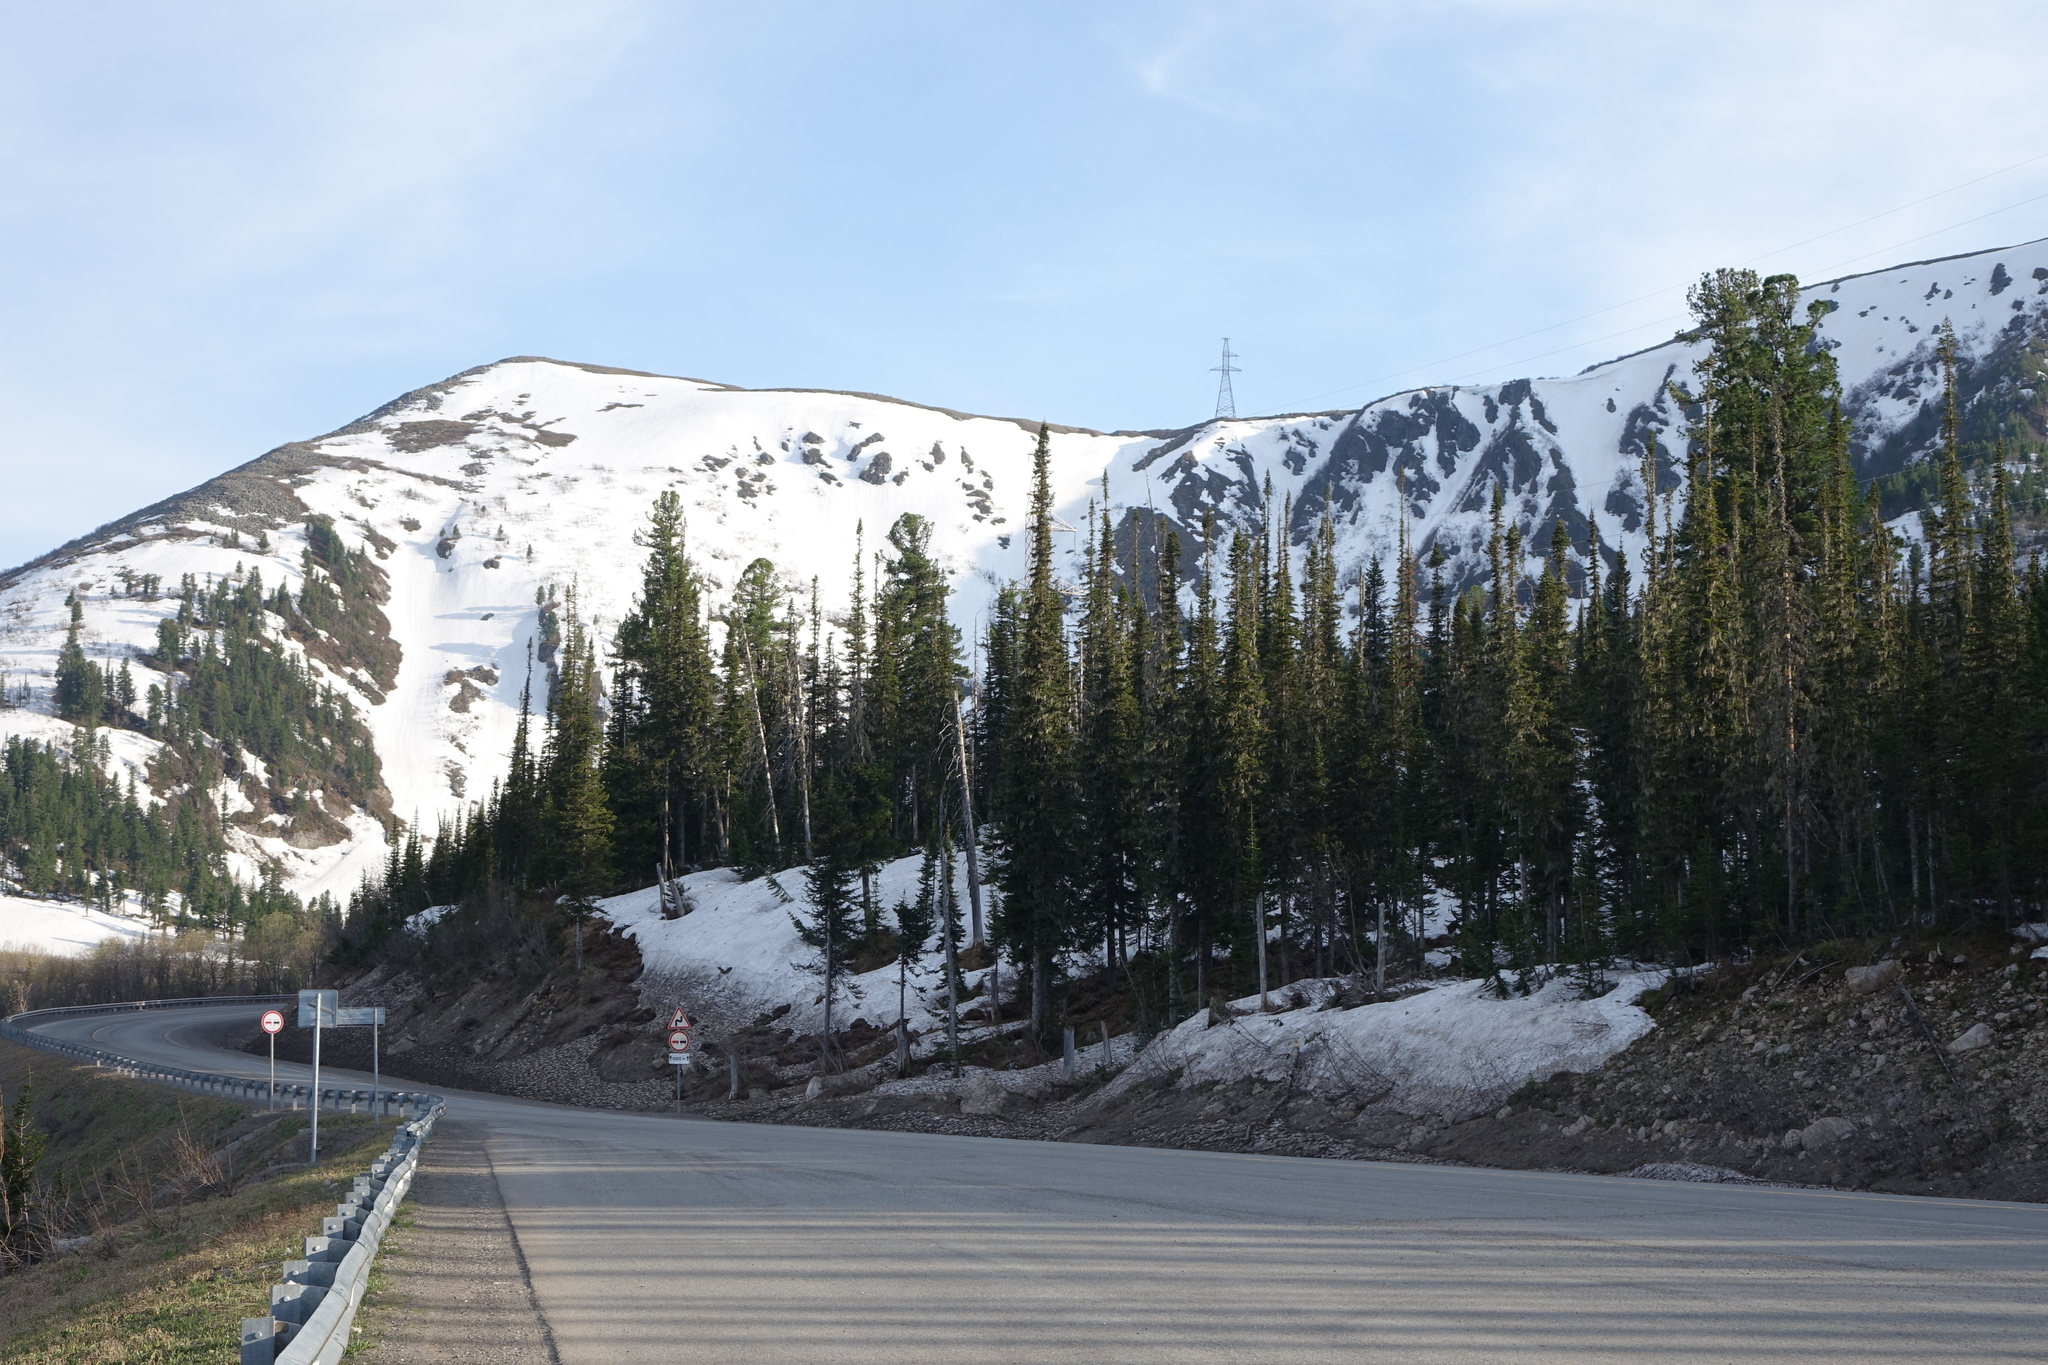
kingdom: Plantae
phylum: Tracheophyta
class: Pinopsida
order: Pinales
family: Pinaceae
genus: Pinus
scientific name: Pinus sibirica
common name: Siberian pine
